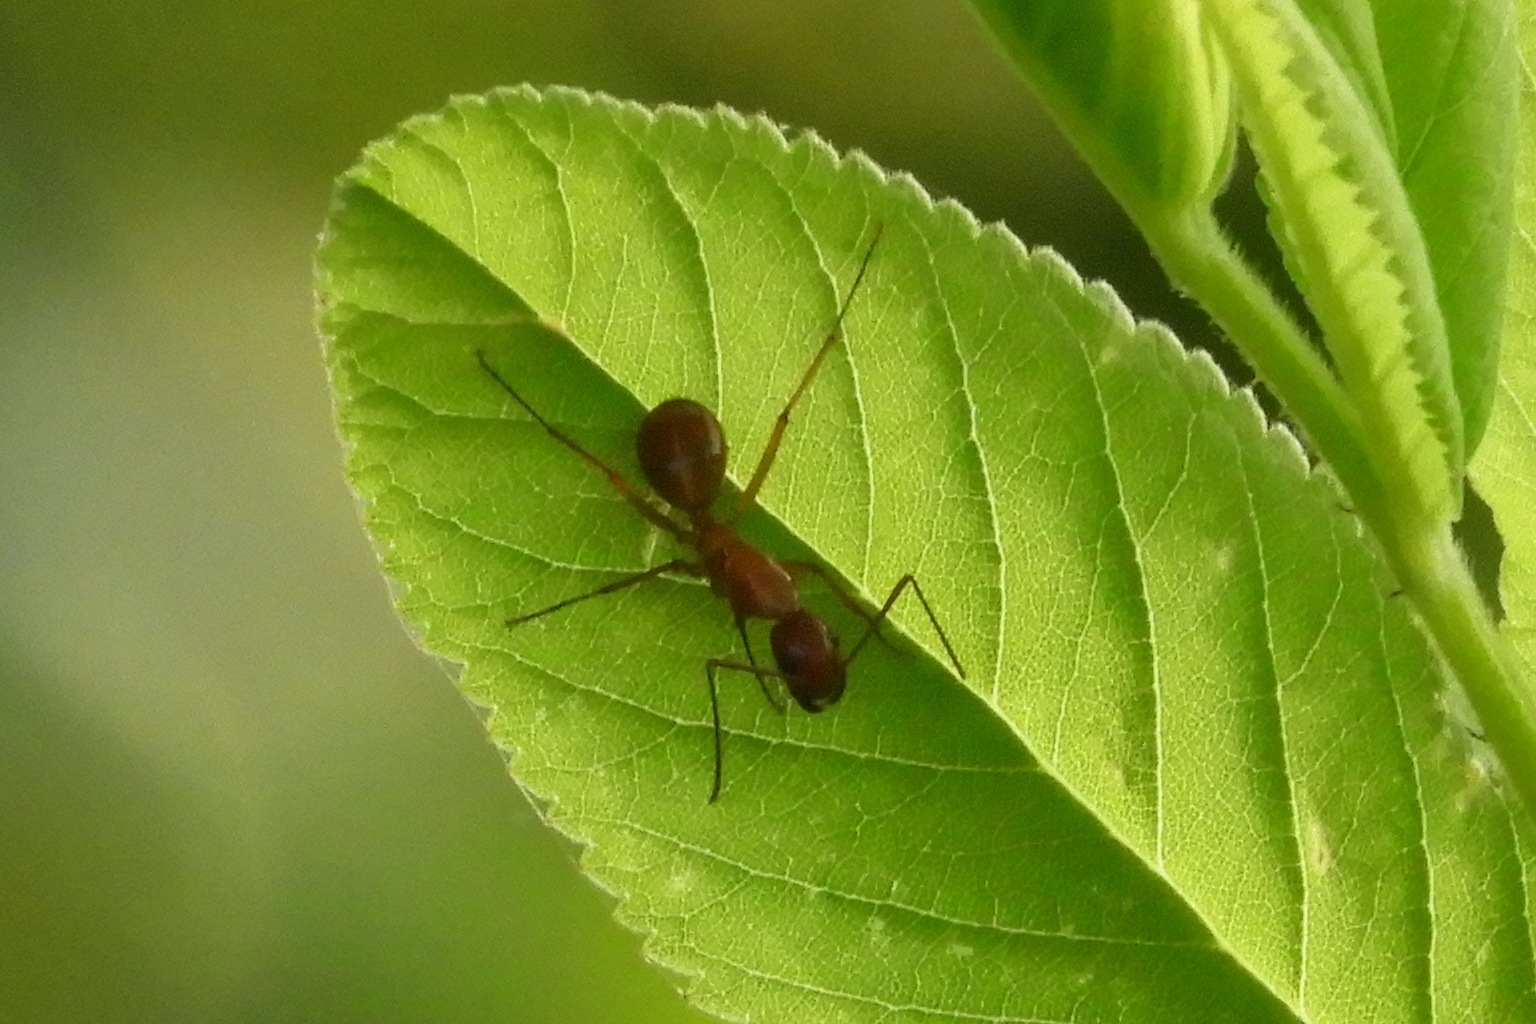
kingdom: Animalia
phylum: Arthropoda
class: Insecta
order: Hymenoptera
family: Formicidae
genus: Camponotus
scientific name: Camponotus castaneus
